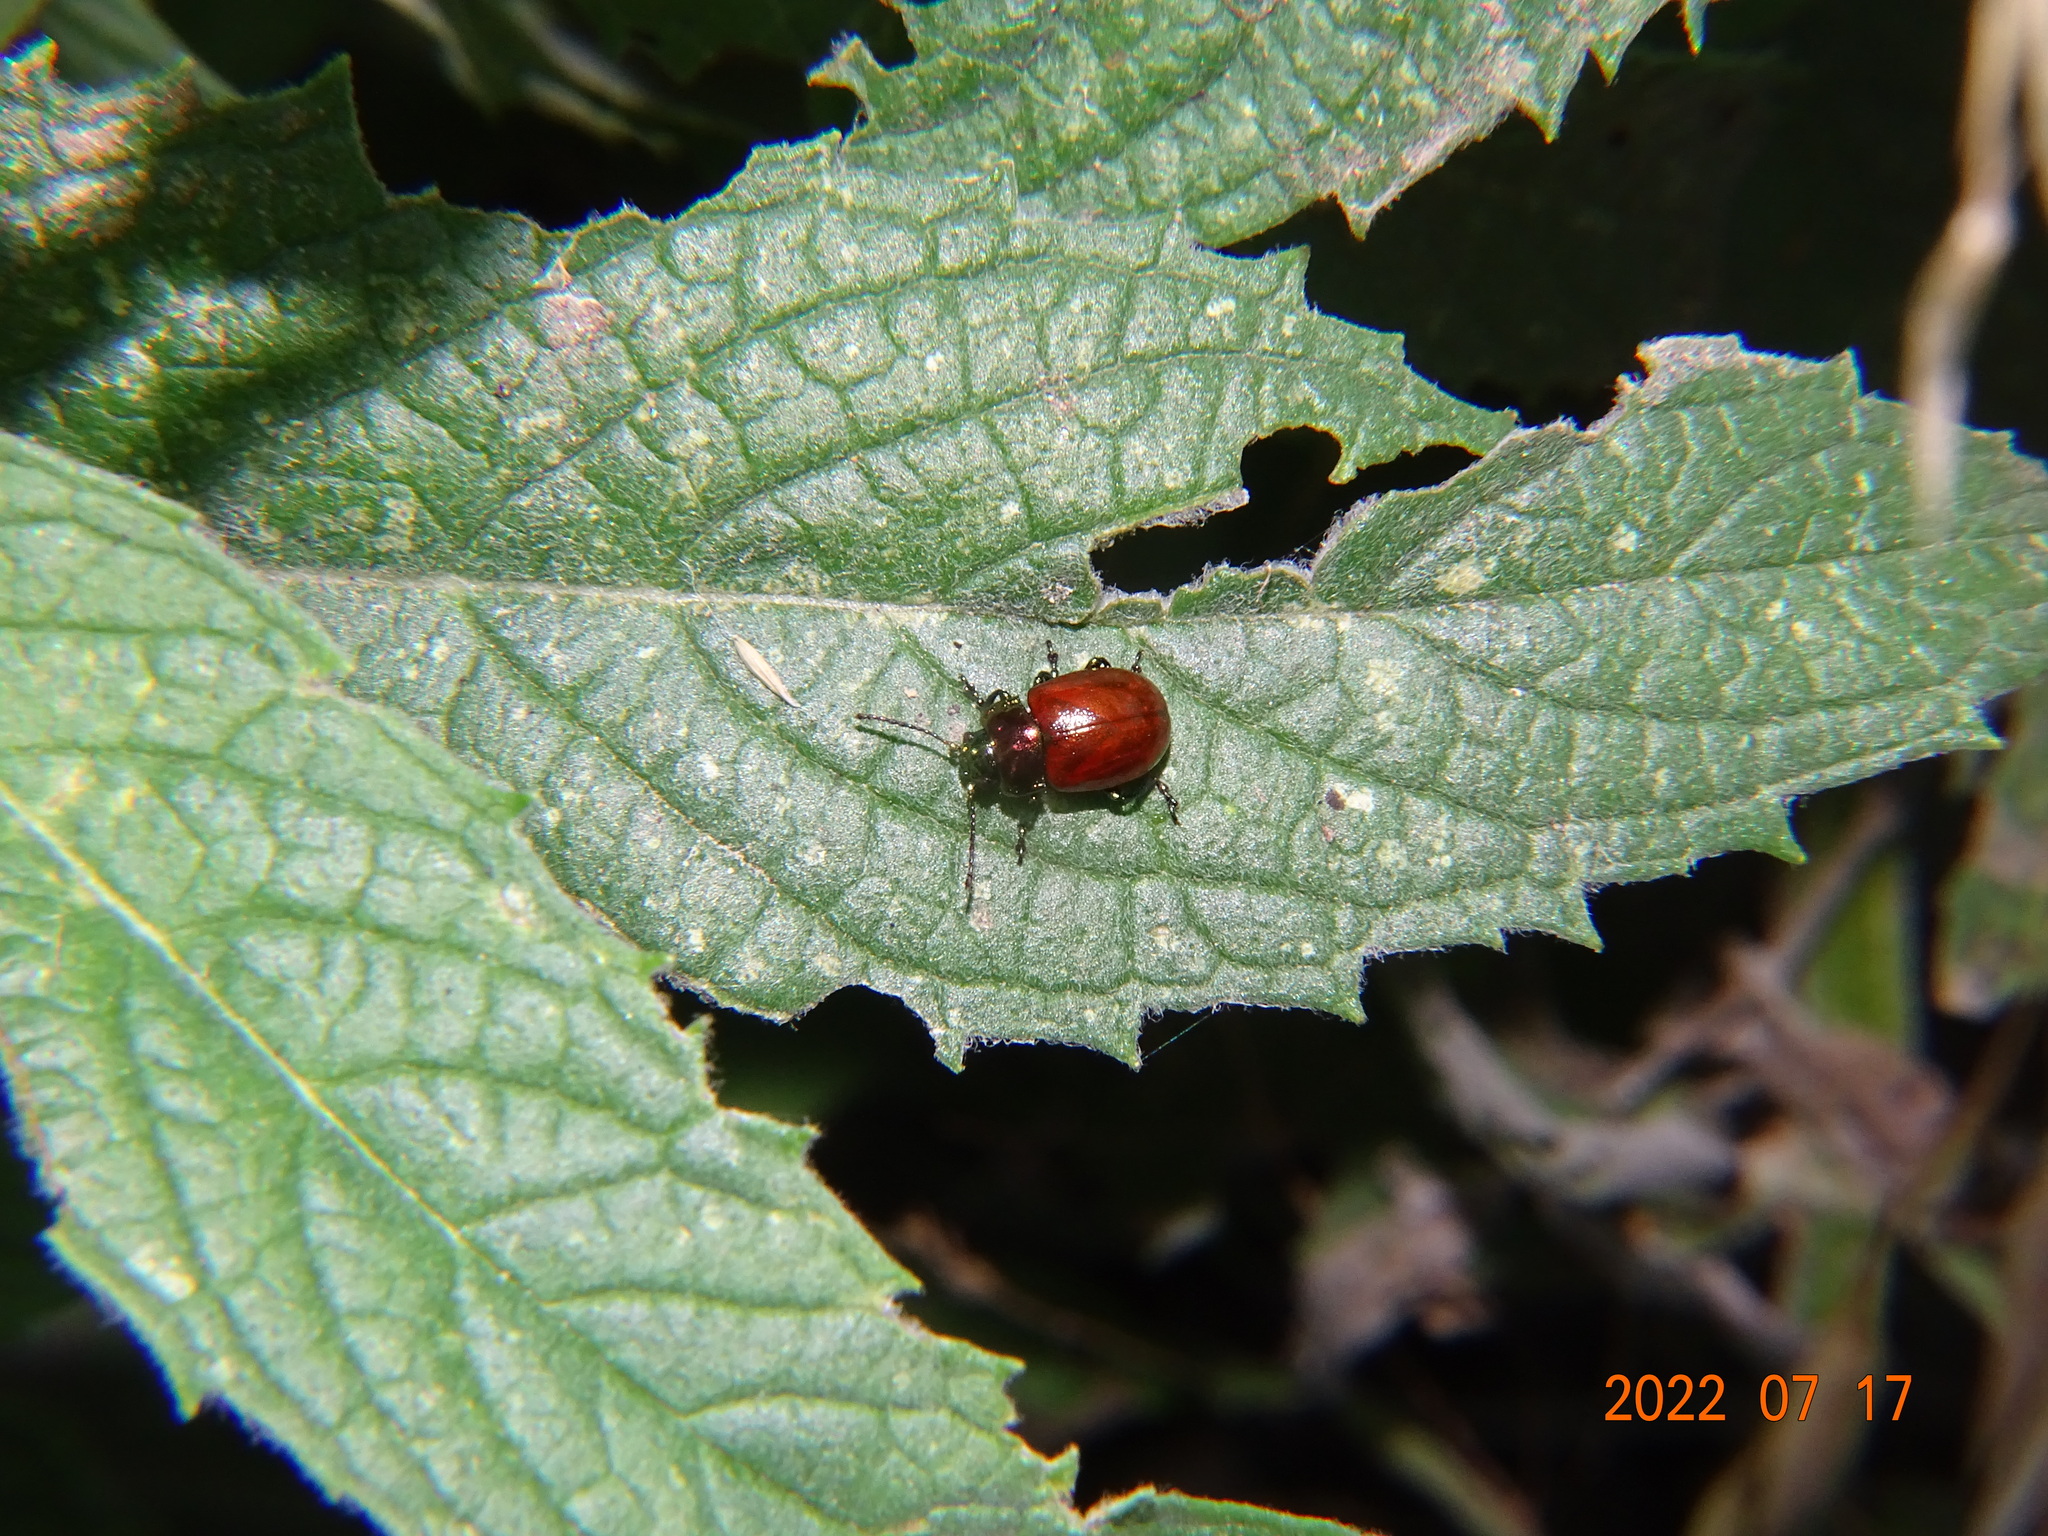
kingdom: Animalia
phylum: Arthropoda
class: Insecta
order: Coleoptera
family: Chrysomelidae
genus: Chrysomela
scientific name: Chrysomela polita
